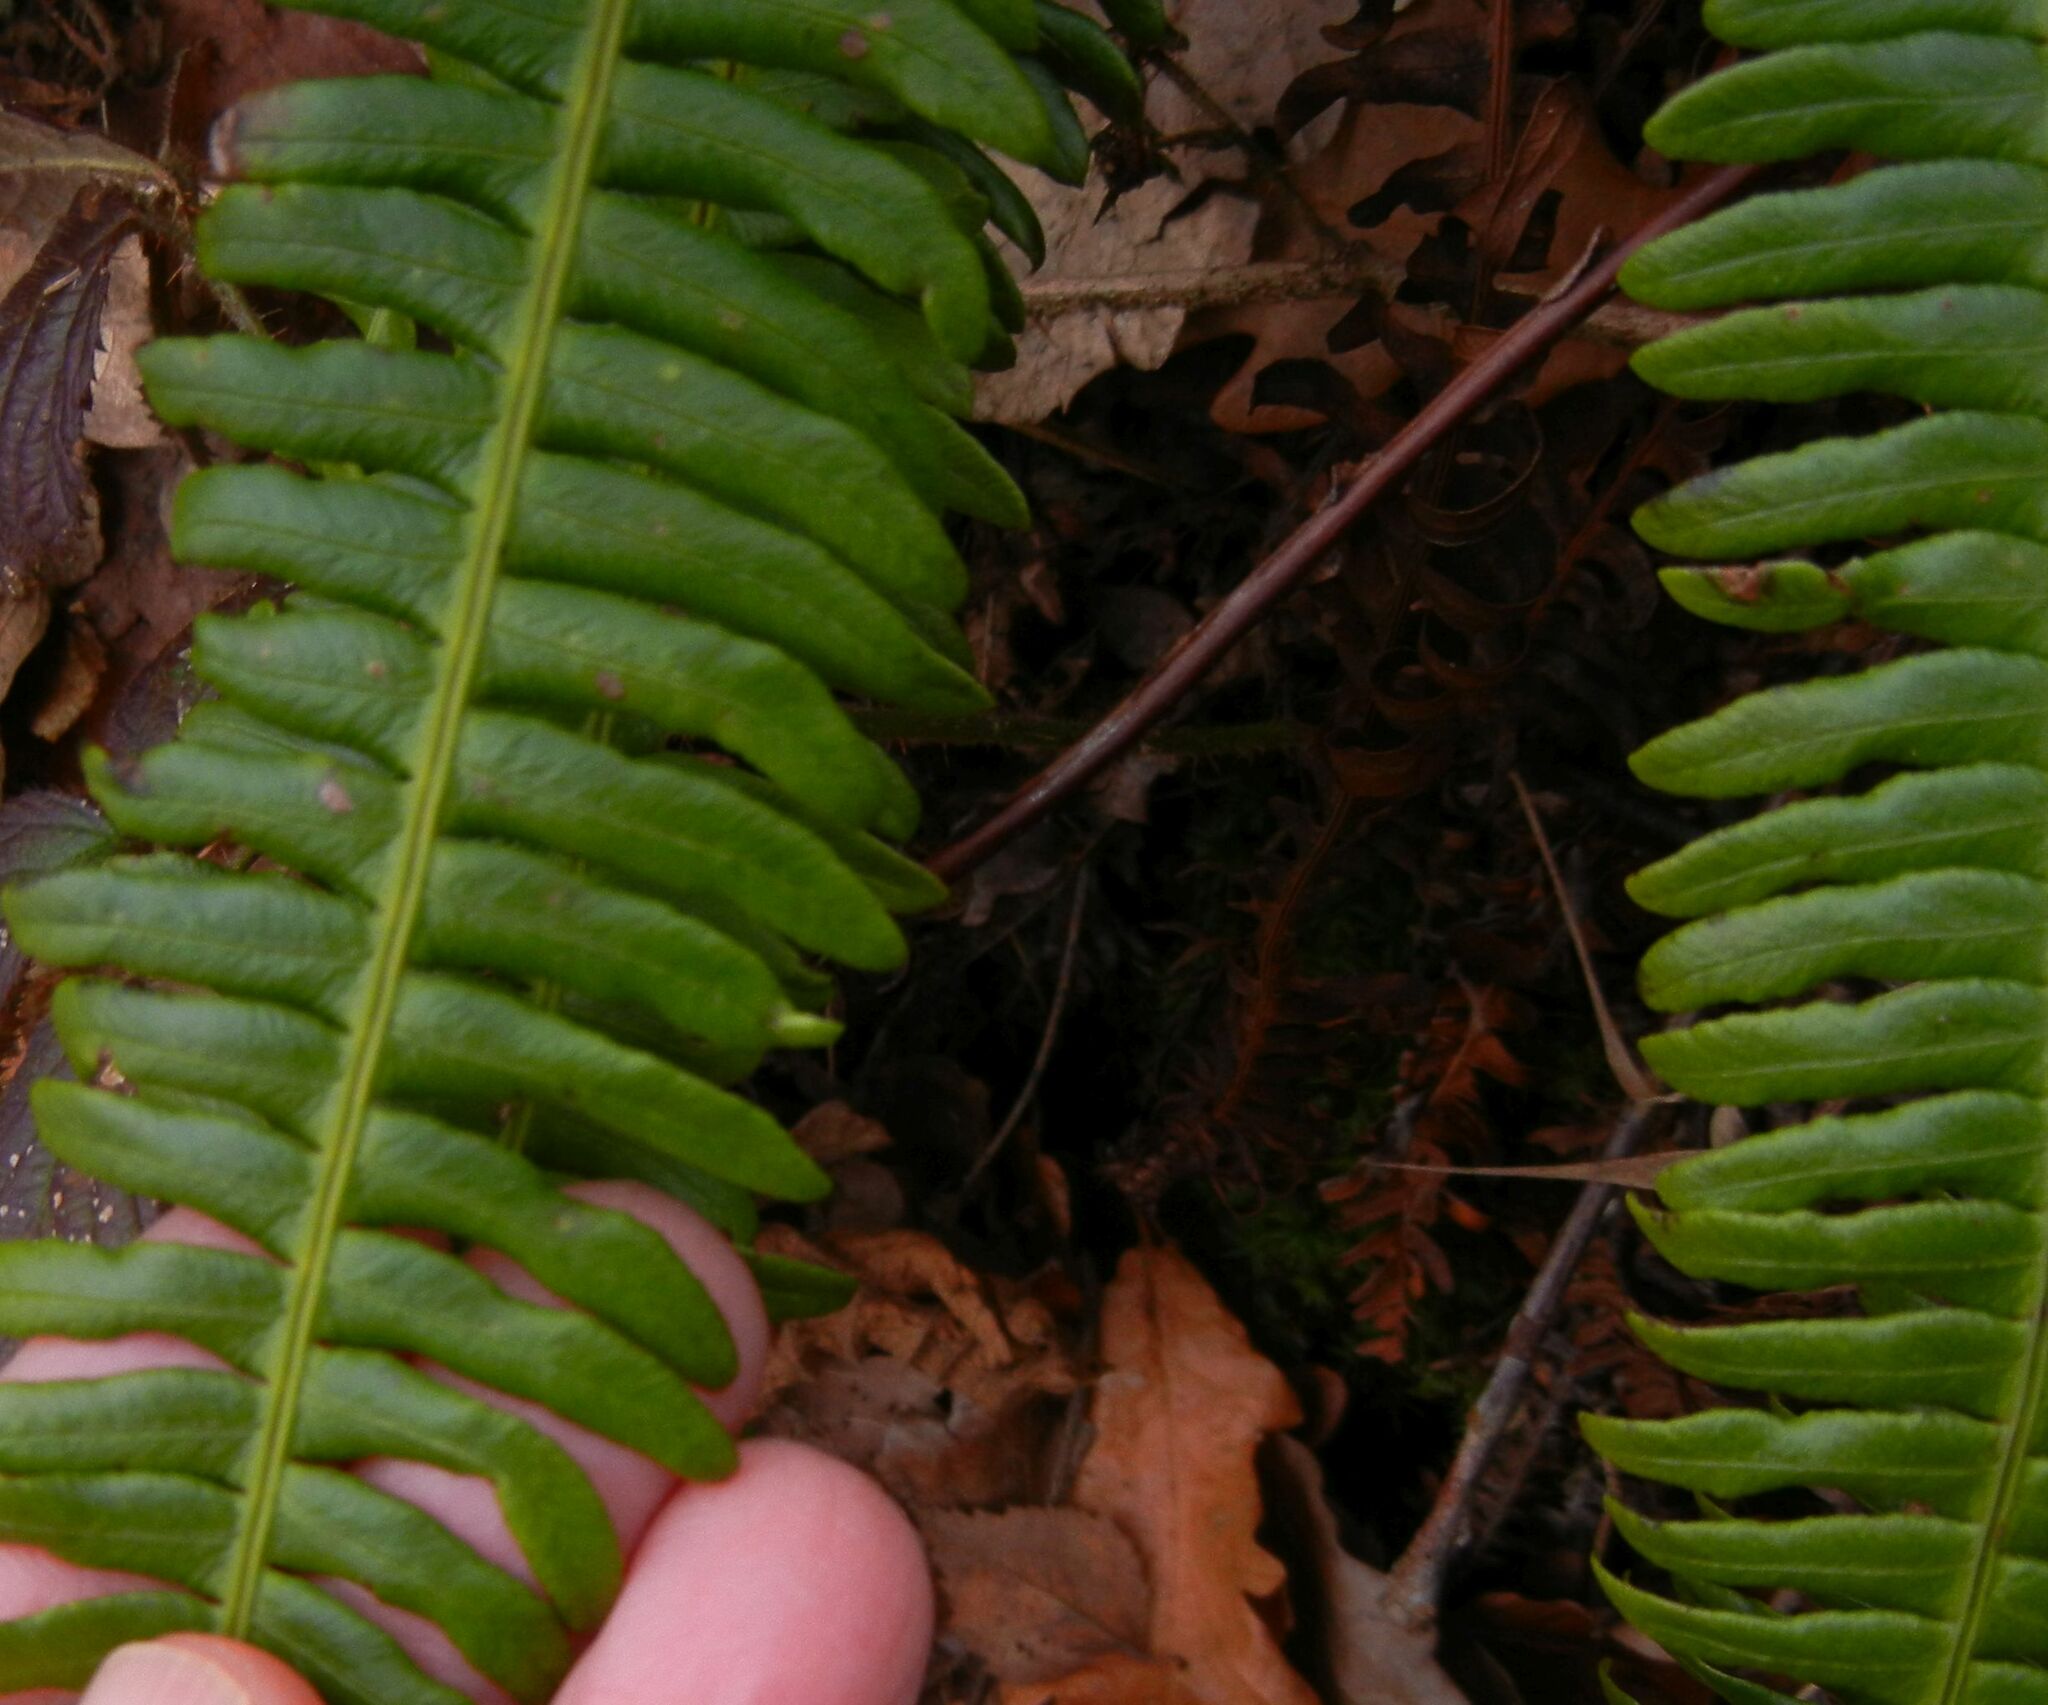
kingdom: Plantae
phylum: Tracheophyta
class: Polypodiopsida
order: Polypodiales
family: Blechnaceae
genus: Struthiopteris
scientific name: Struthiopteris spicant
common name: Deer fern
